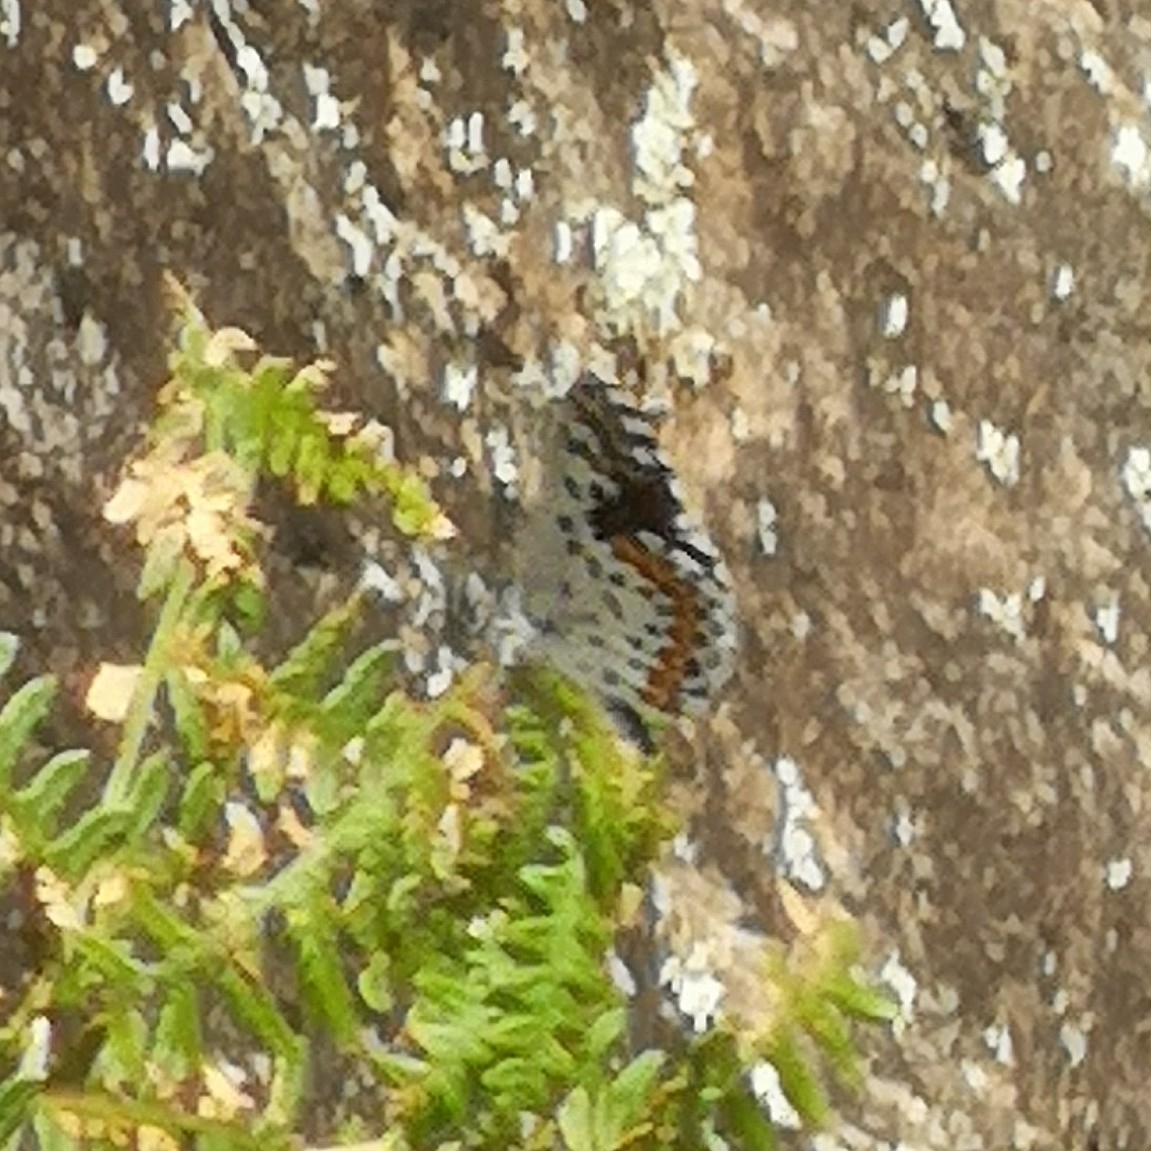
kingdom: Animalia
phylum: Arthropoda
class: Insecta
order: Lepidoptera
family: Lycaenidae
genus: Scolitantides
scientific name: Scolitantides orion
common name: Chequered blue
